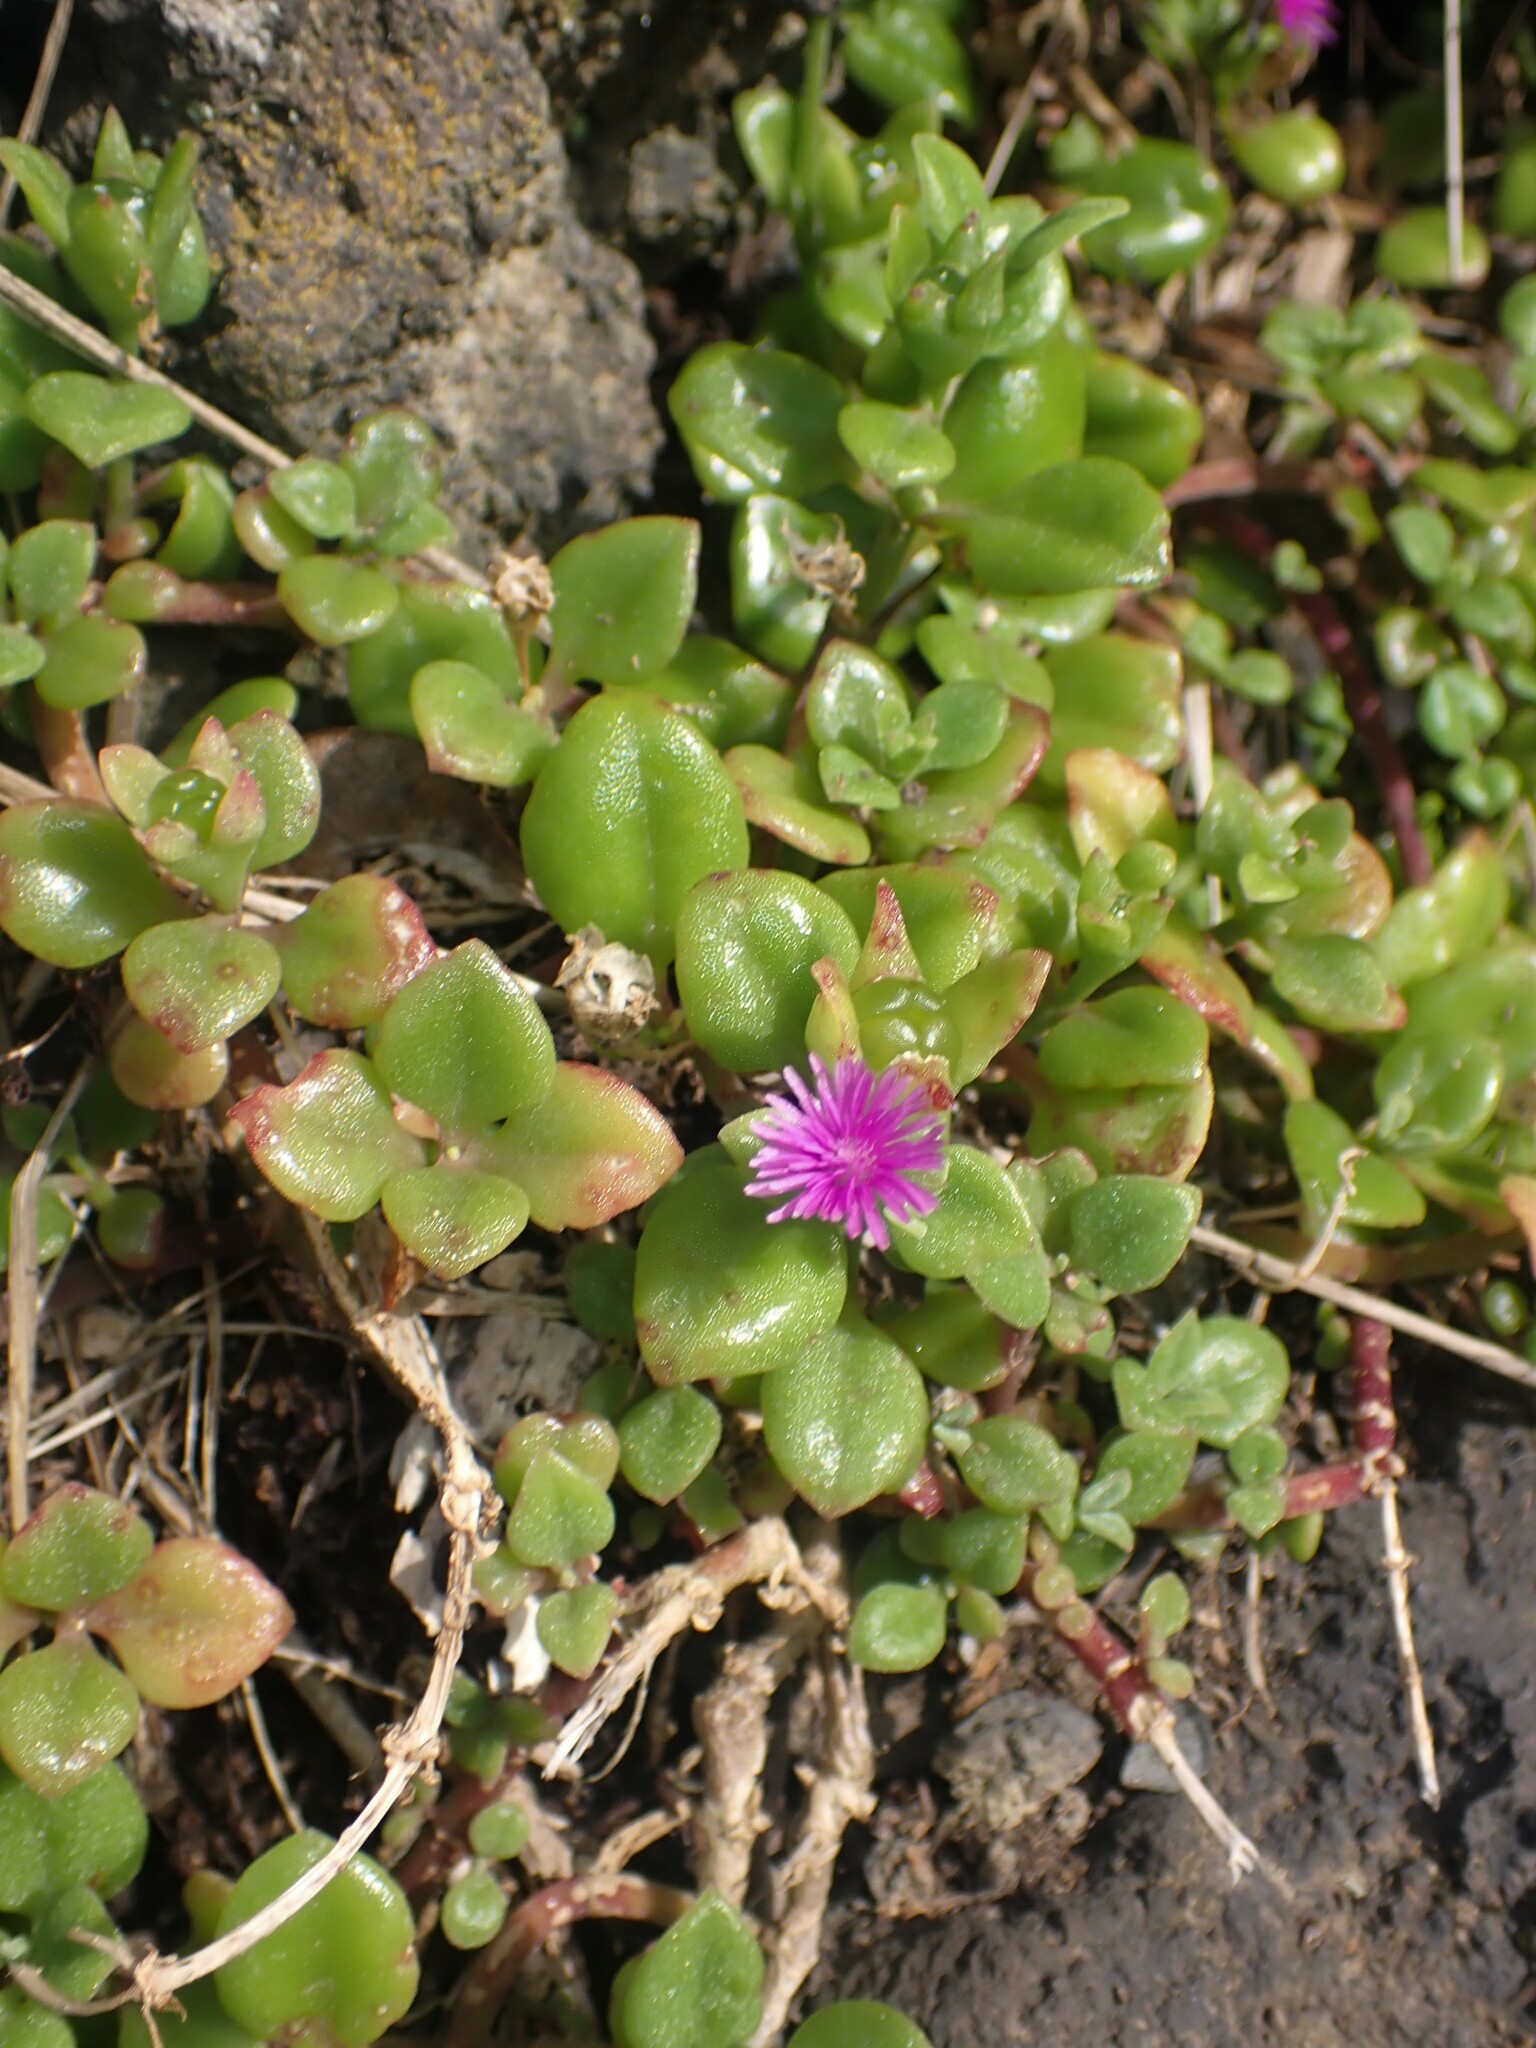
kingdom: Plantae
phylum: Tracheophyta
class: Magnoliopsida
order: Caryophyllales
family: Aizoaceae
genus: Mesembryanthemum
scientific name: Mesembryanthemum cordifolium
